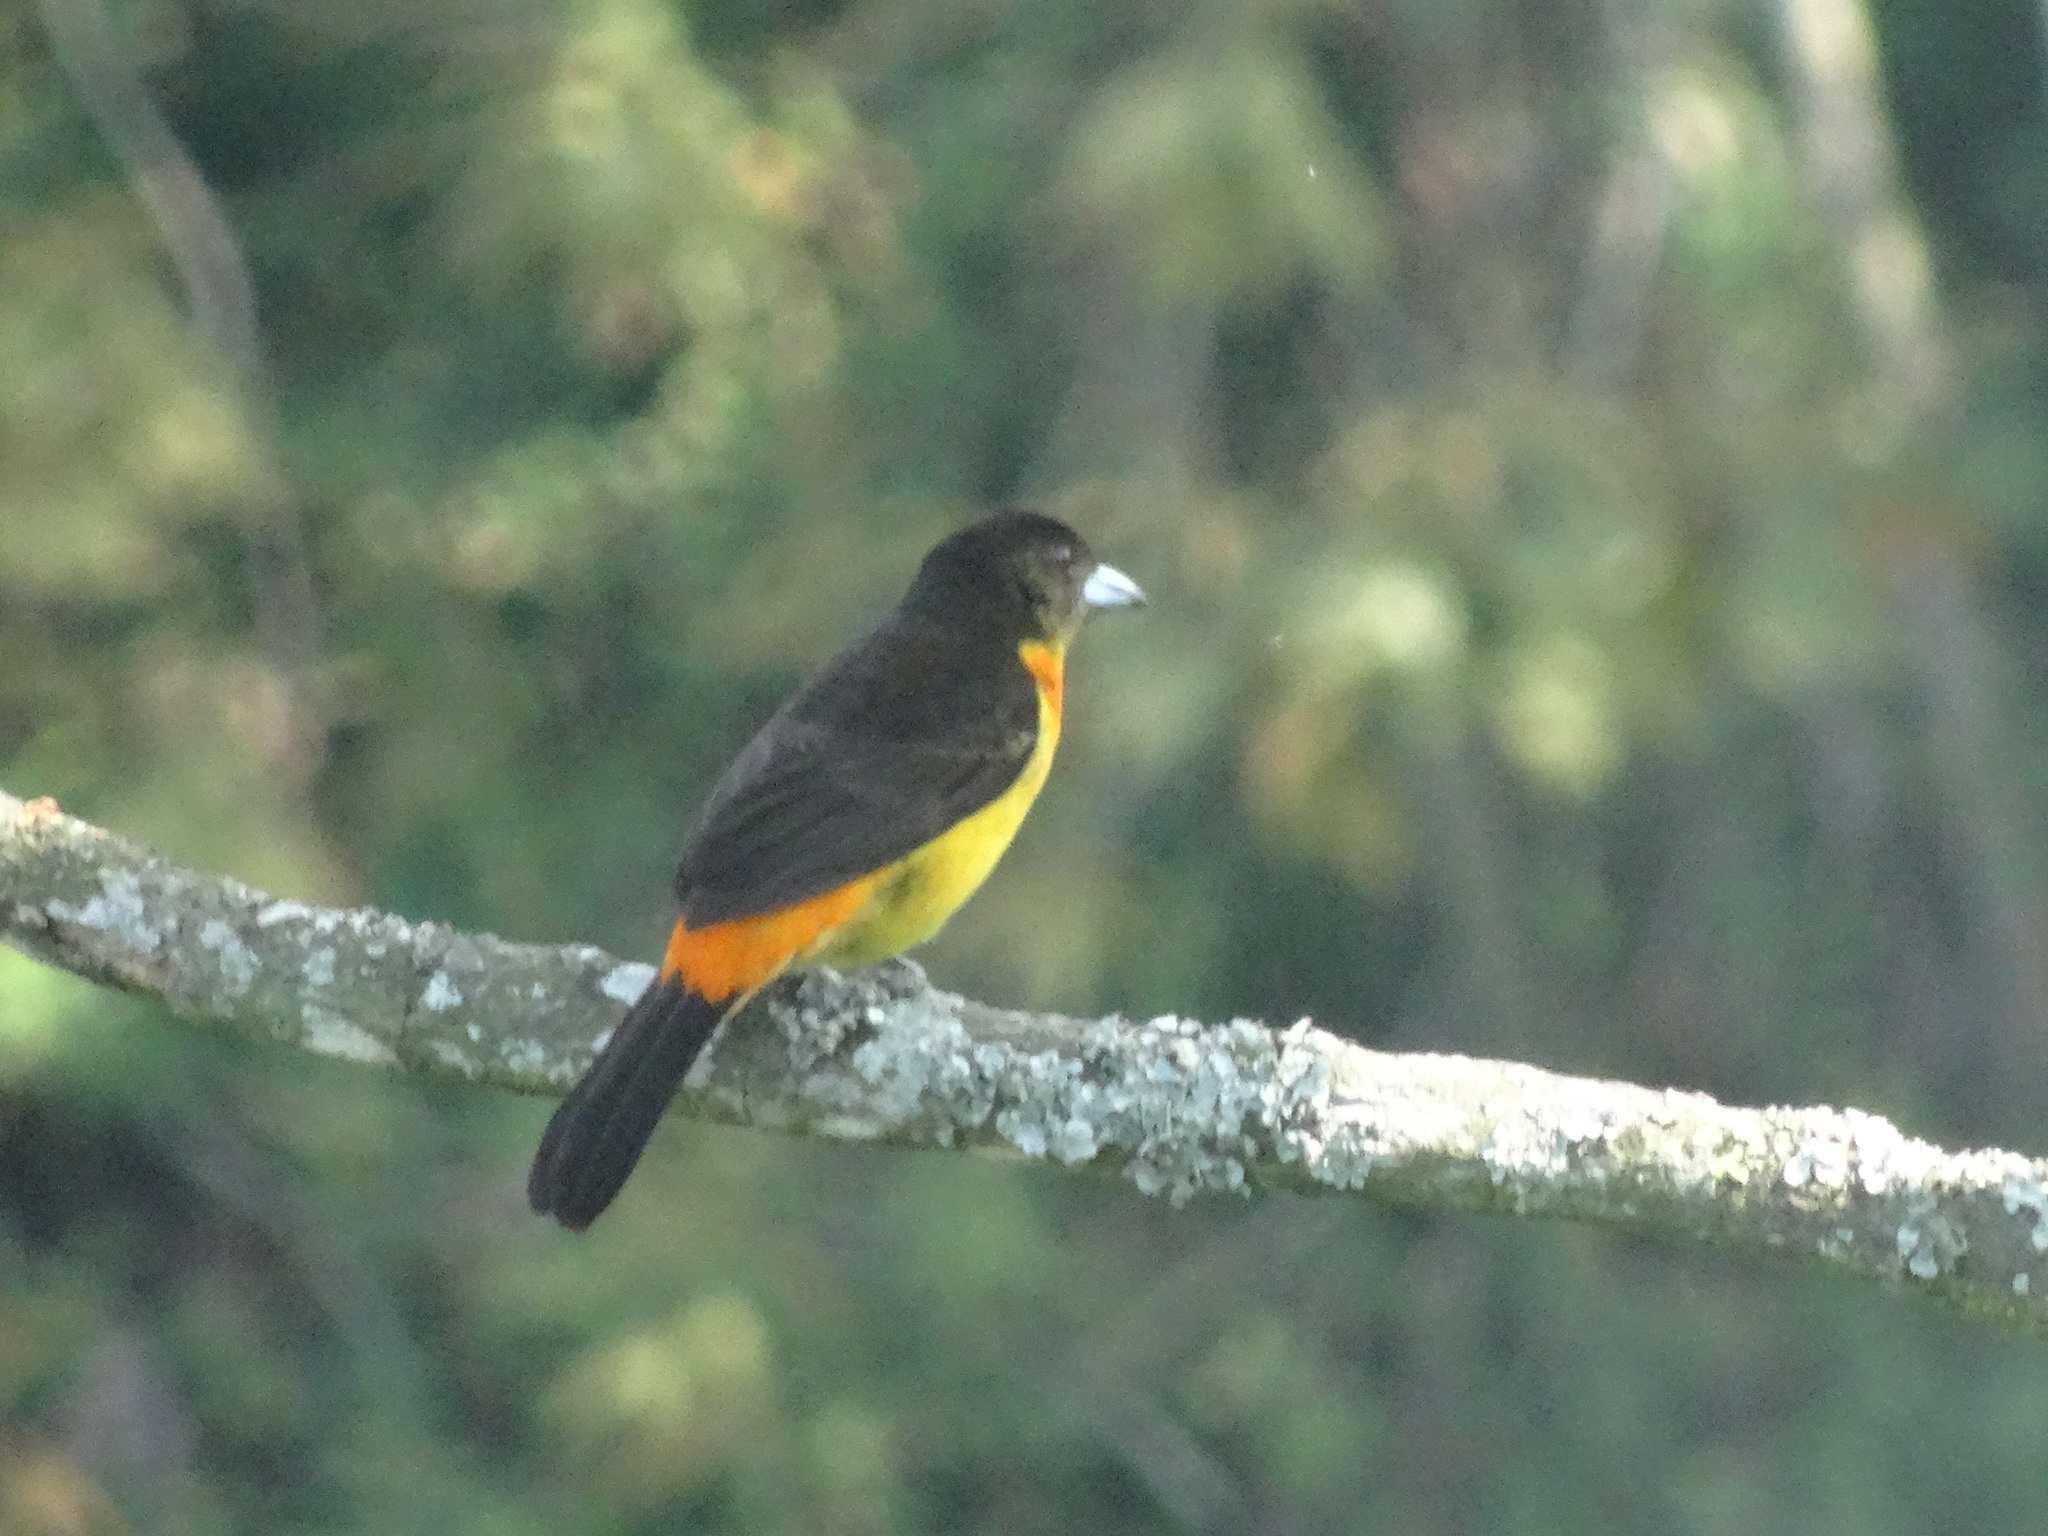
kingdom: Animalia
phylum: Chordata
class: Aves
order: Passeriformes
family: Thraupidae
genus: Ramphocelus
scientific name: Ramphocelus flammigerus
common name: Flame-rumped tanager
